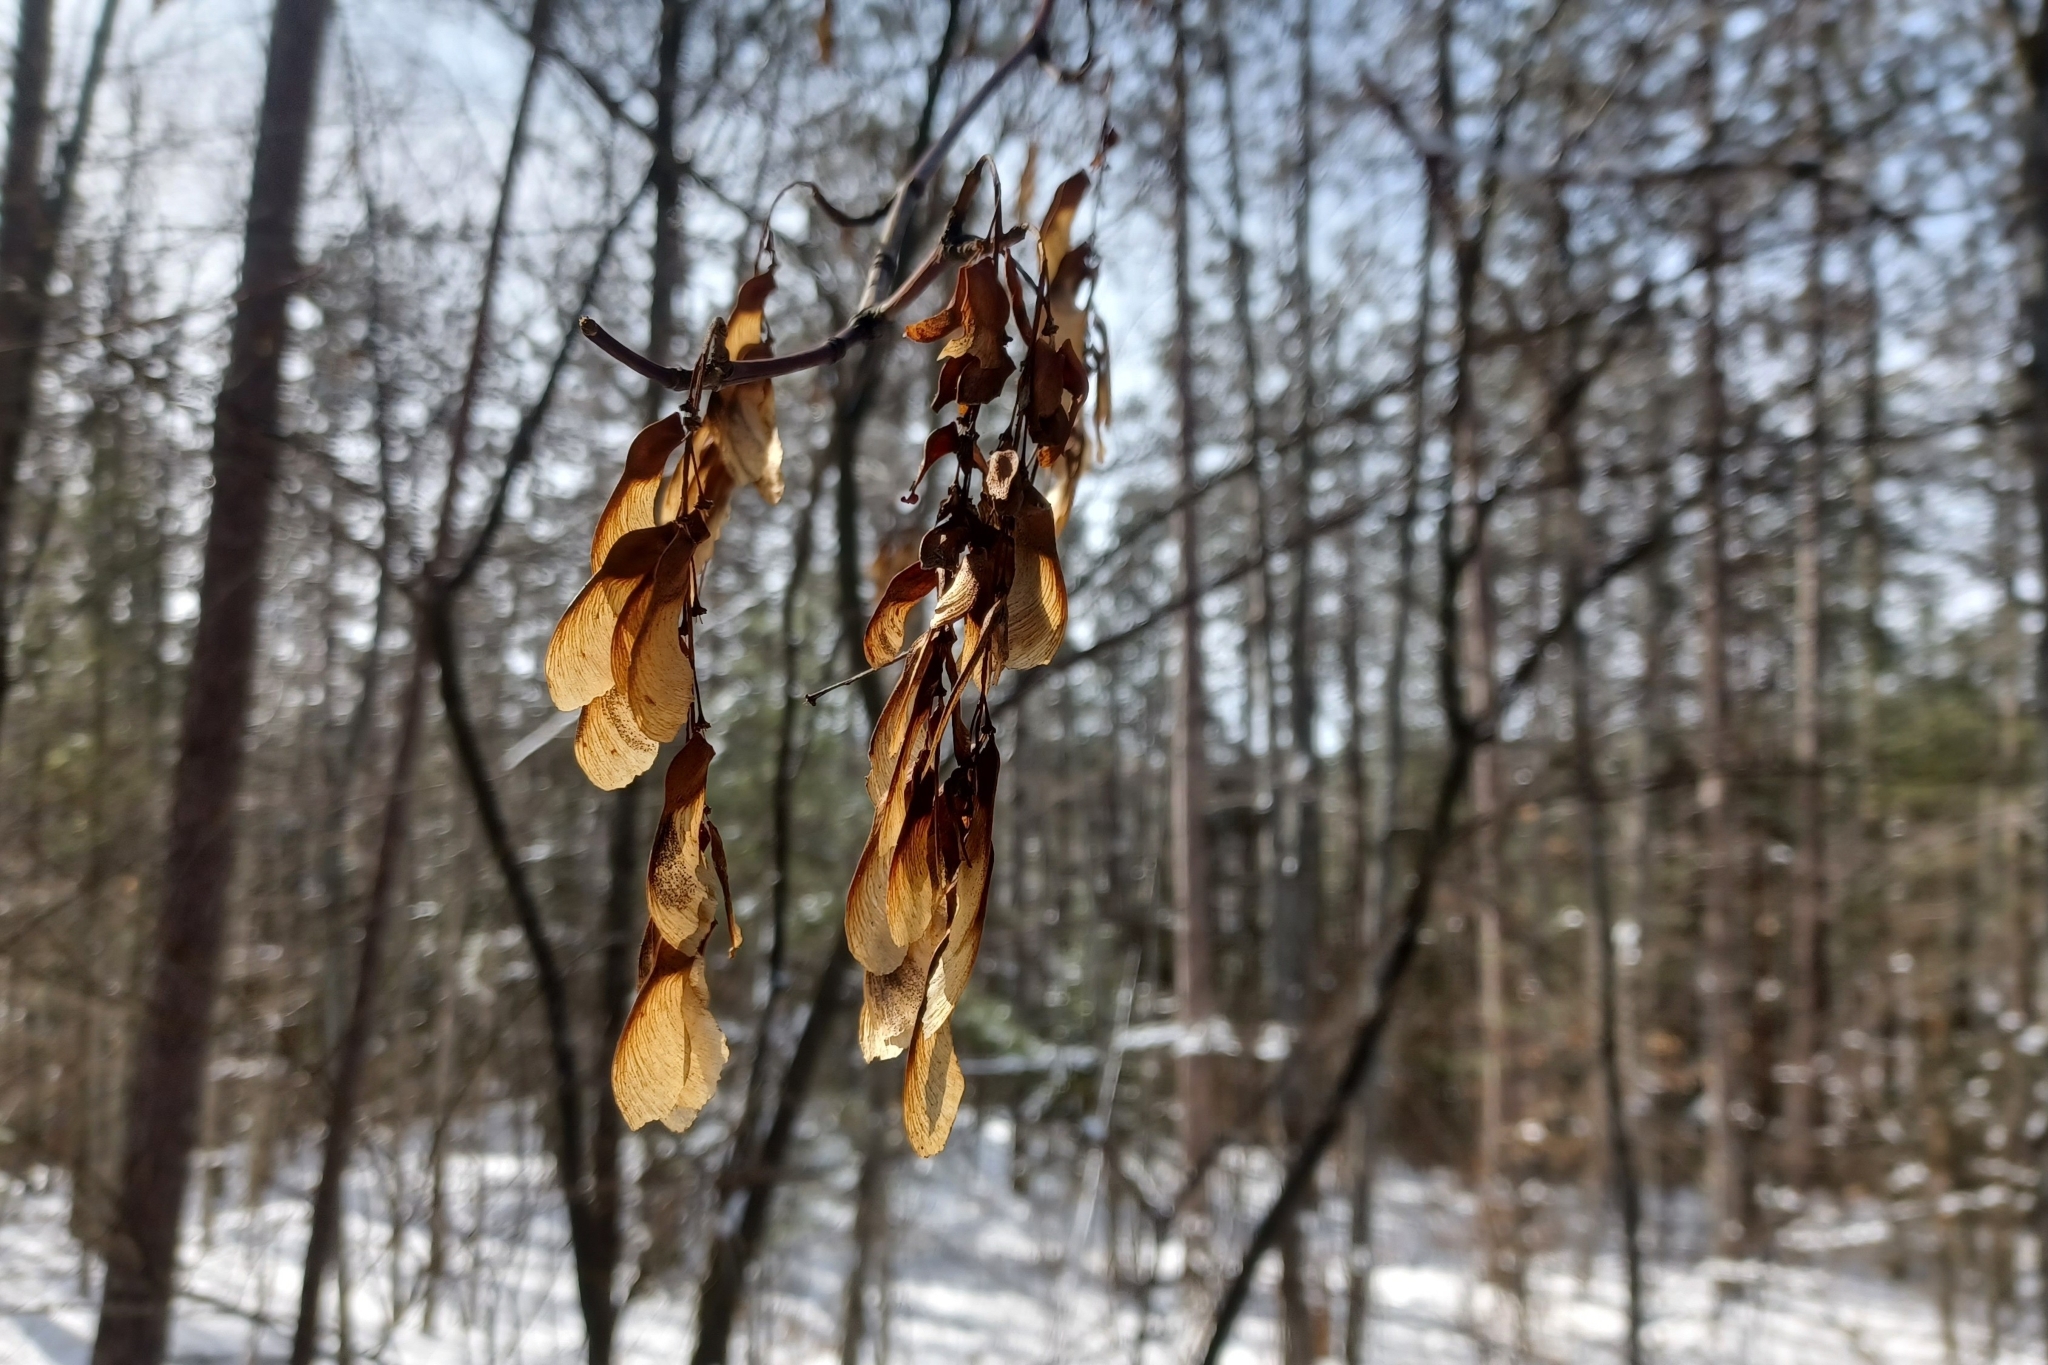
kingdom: Plantae
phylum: Tracheophyta
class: Magnoliopsida
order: Sapindales
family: Sapindaceae
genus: Acer
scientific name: Acer pensylvanicum
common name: Moosewood
